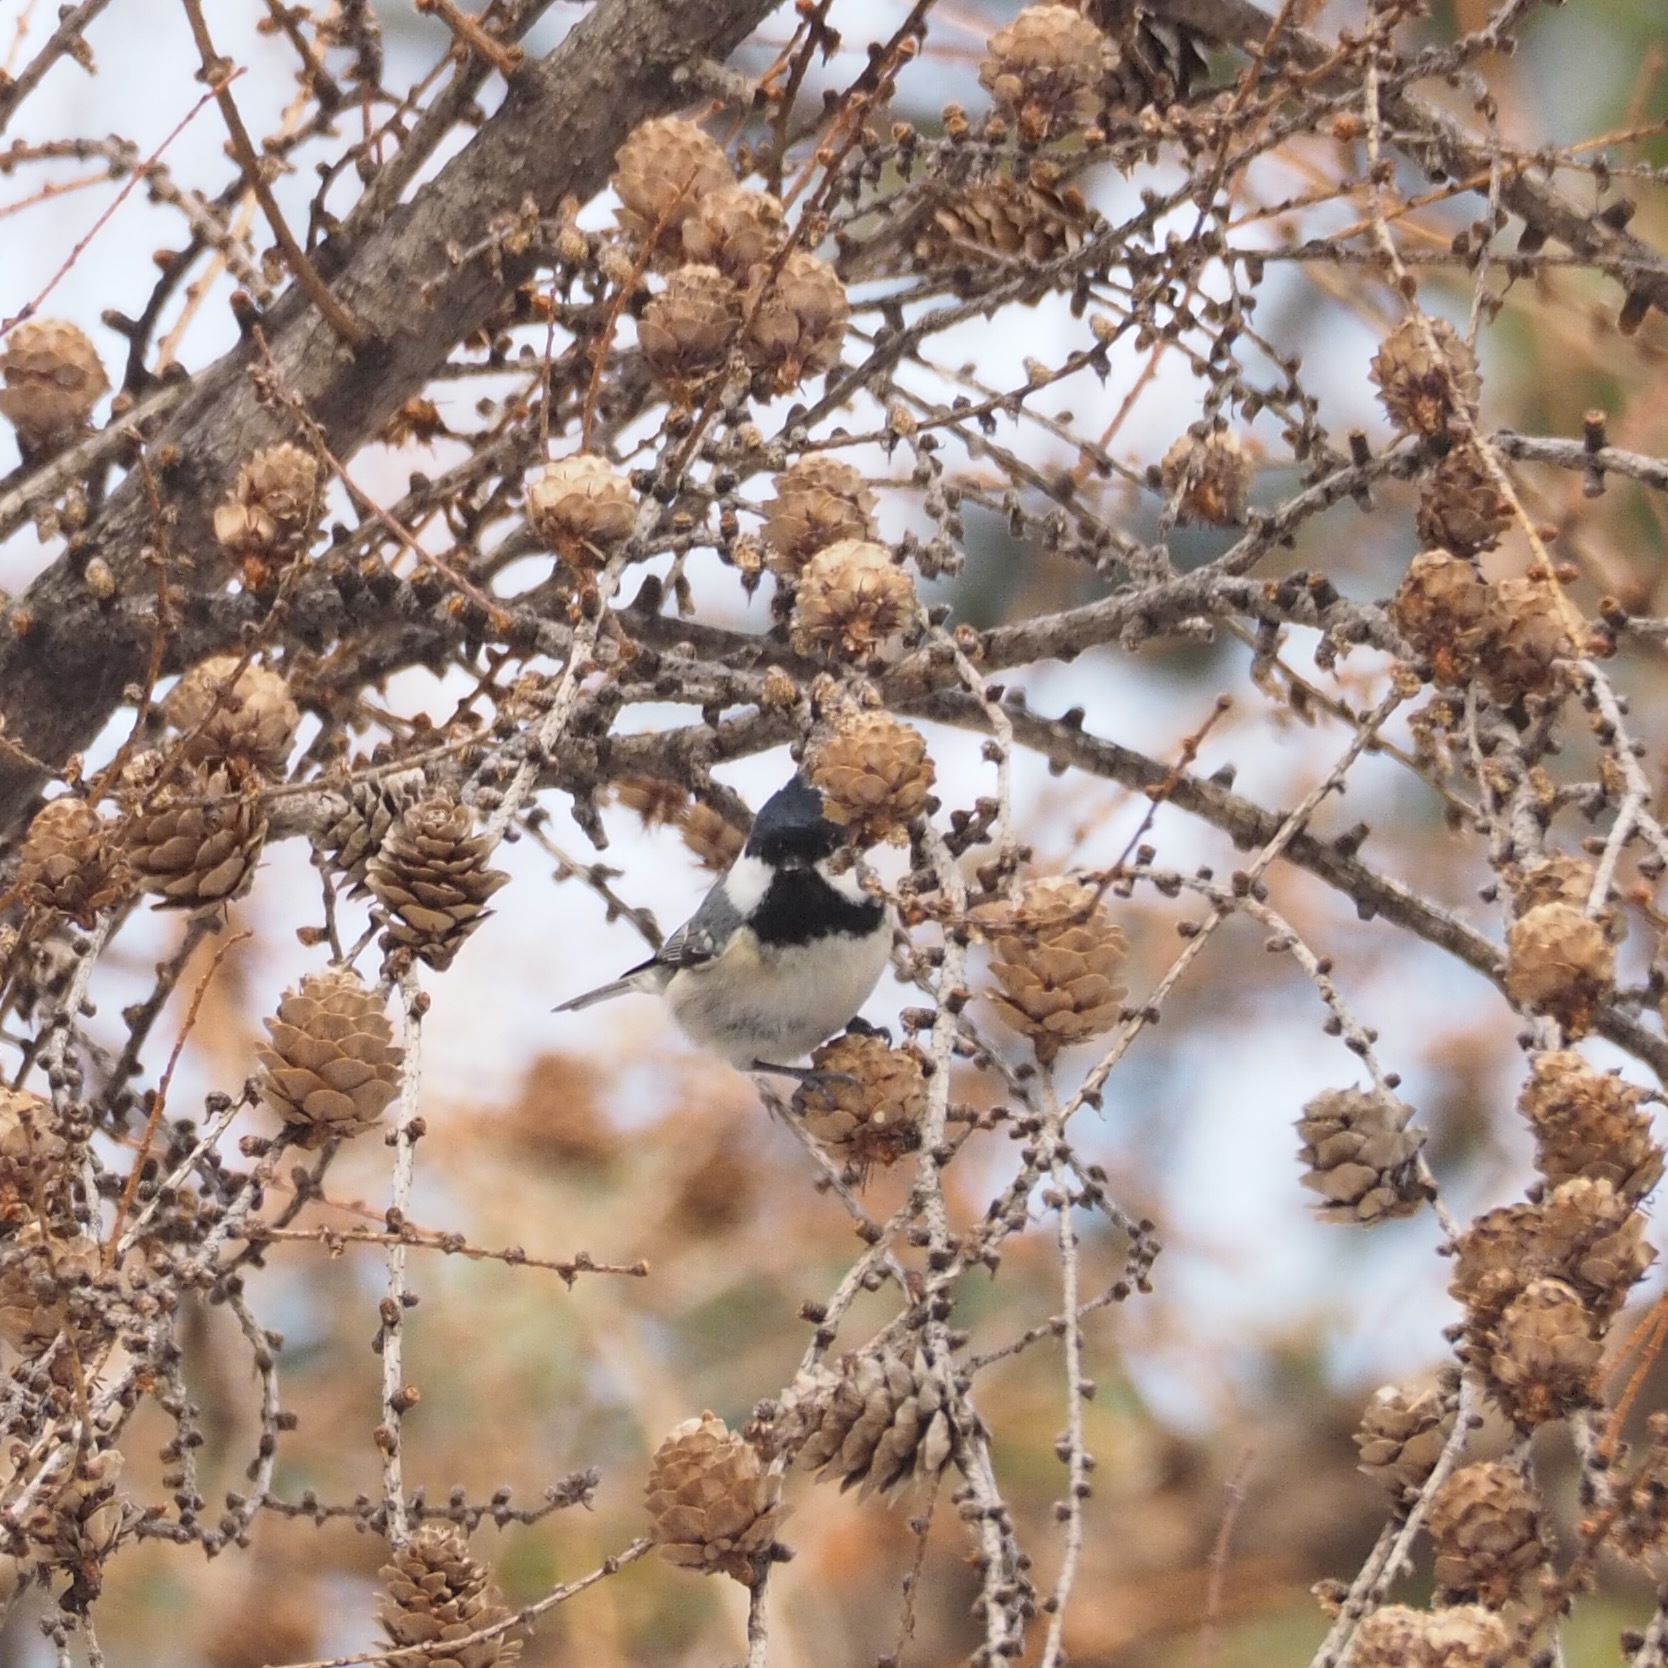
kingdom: Animalia
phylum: Chordata
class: Aves
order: Passeriformes
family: Paridae
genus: Periparus
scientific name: Periparus ater
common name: Coal tit
